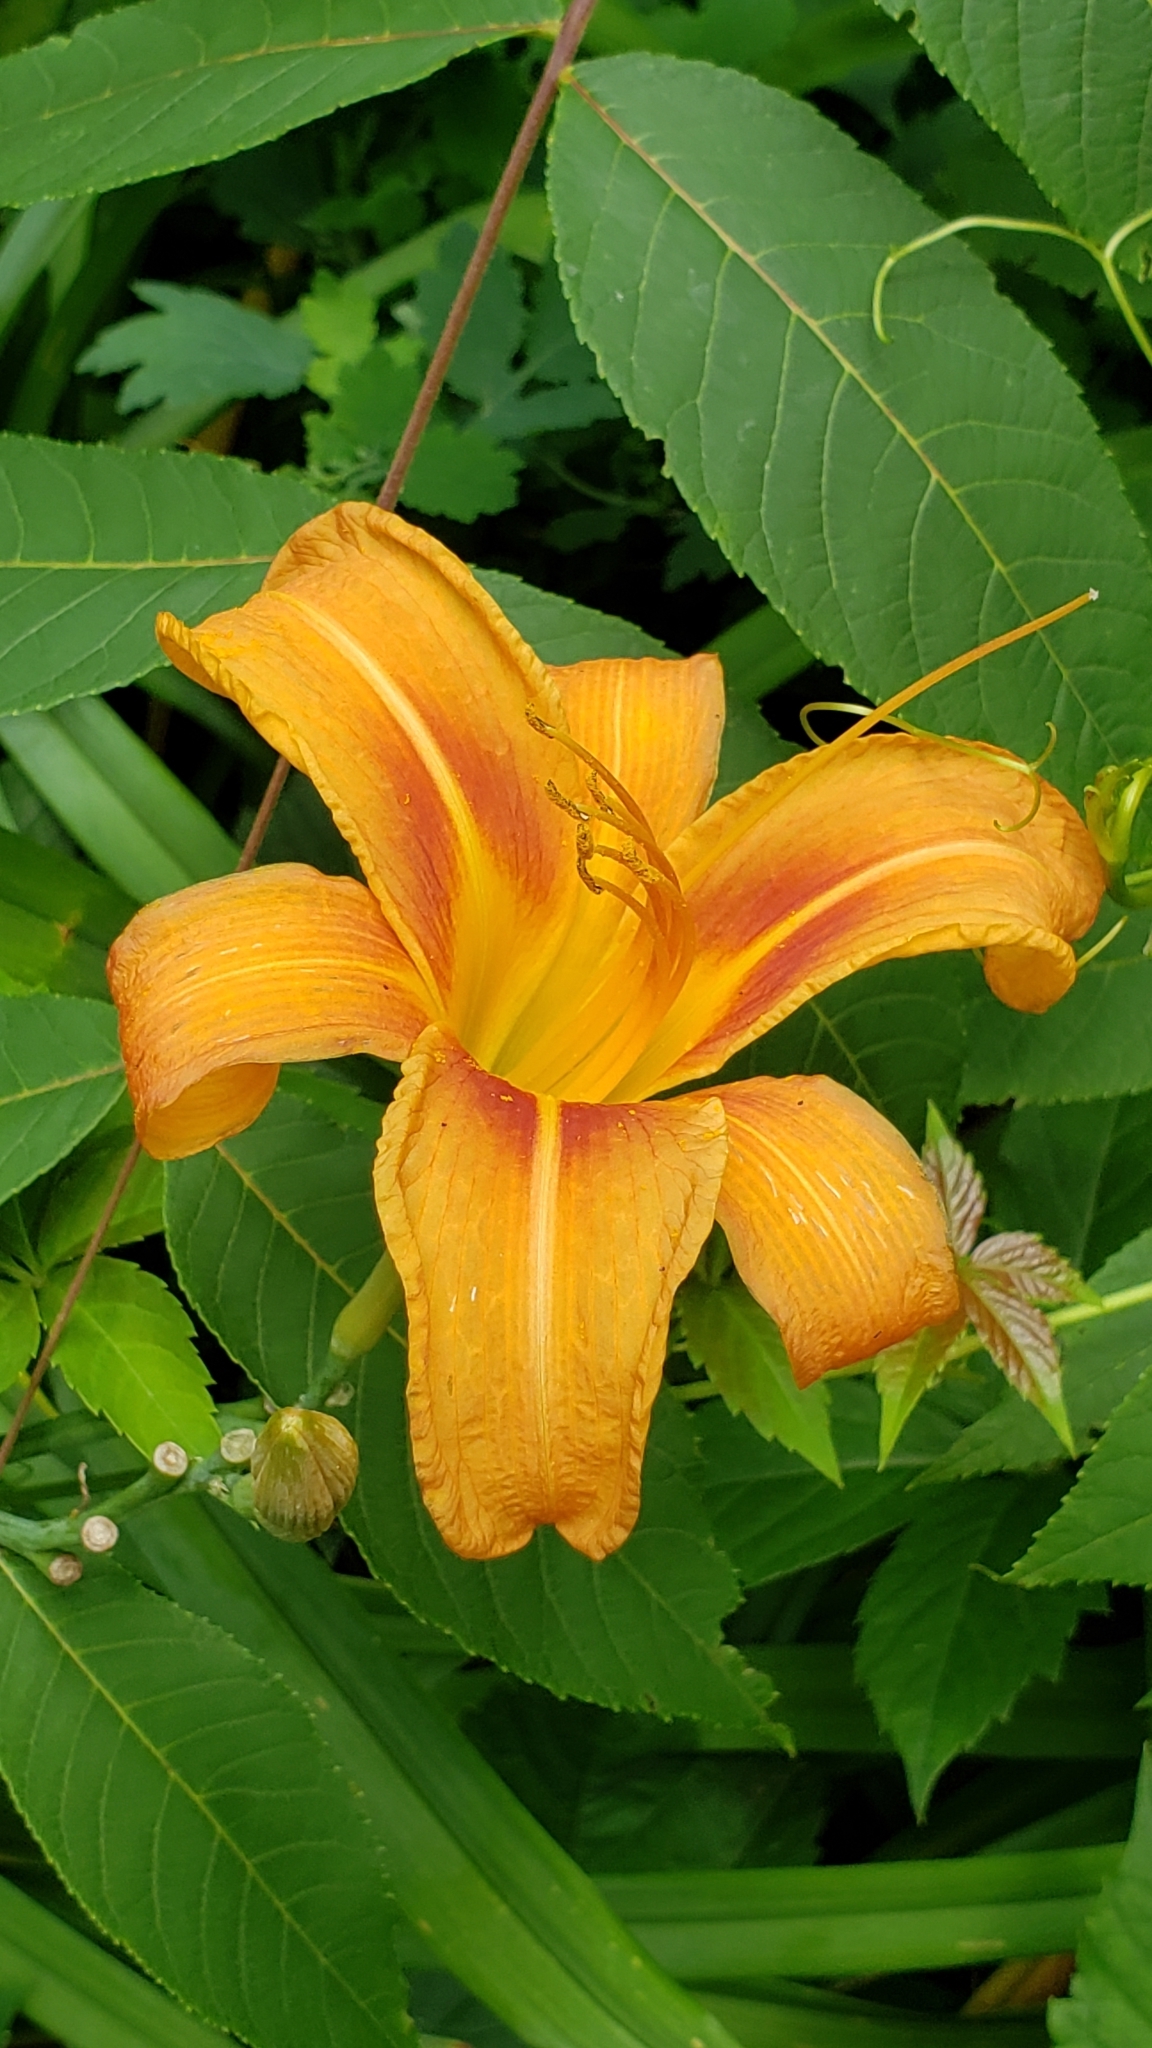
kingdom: Plantae
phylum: Tracheophyta
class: Liliopsida
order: Asparagales
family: Asphodelaceae
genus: Hemerocallis
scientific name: Hemerocallis fulva
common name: Orange day-lily
